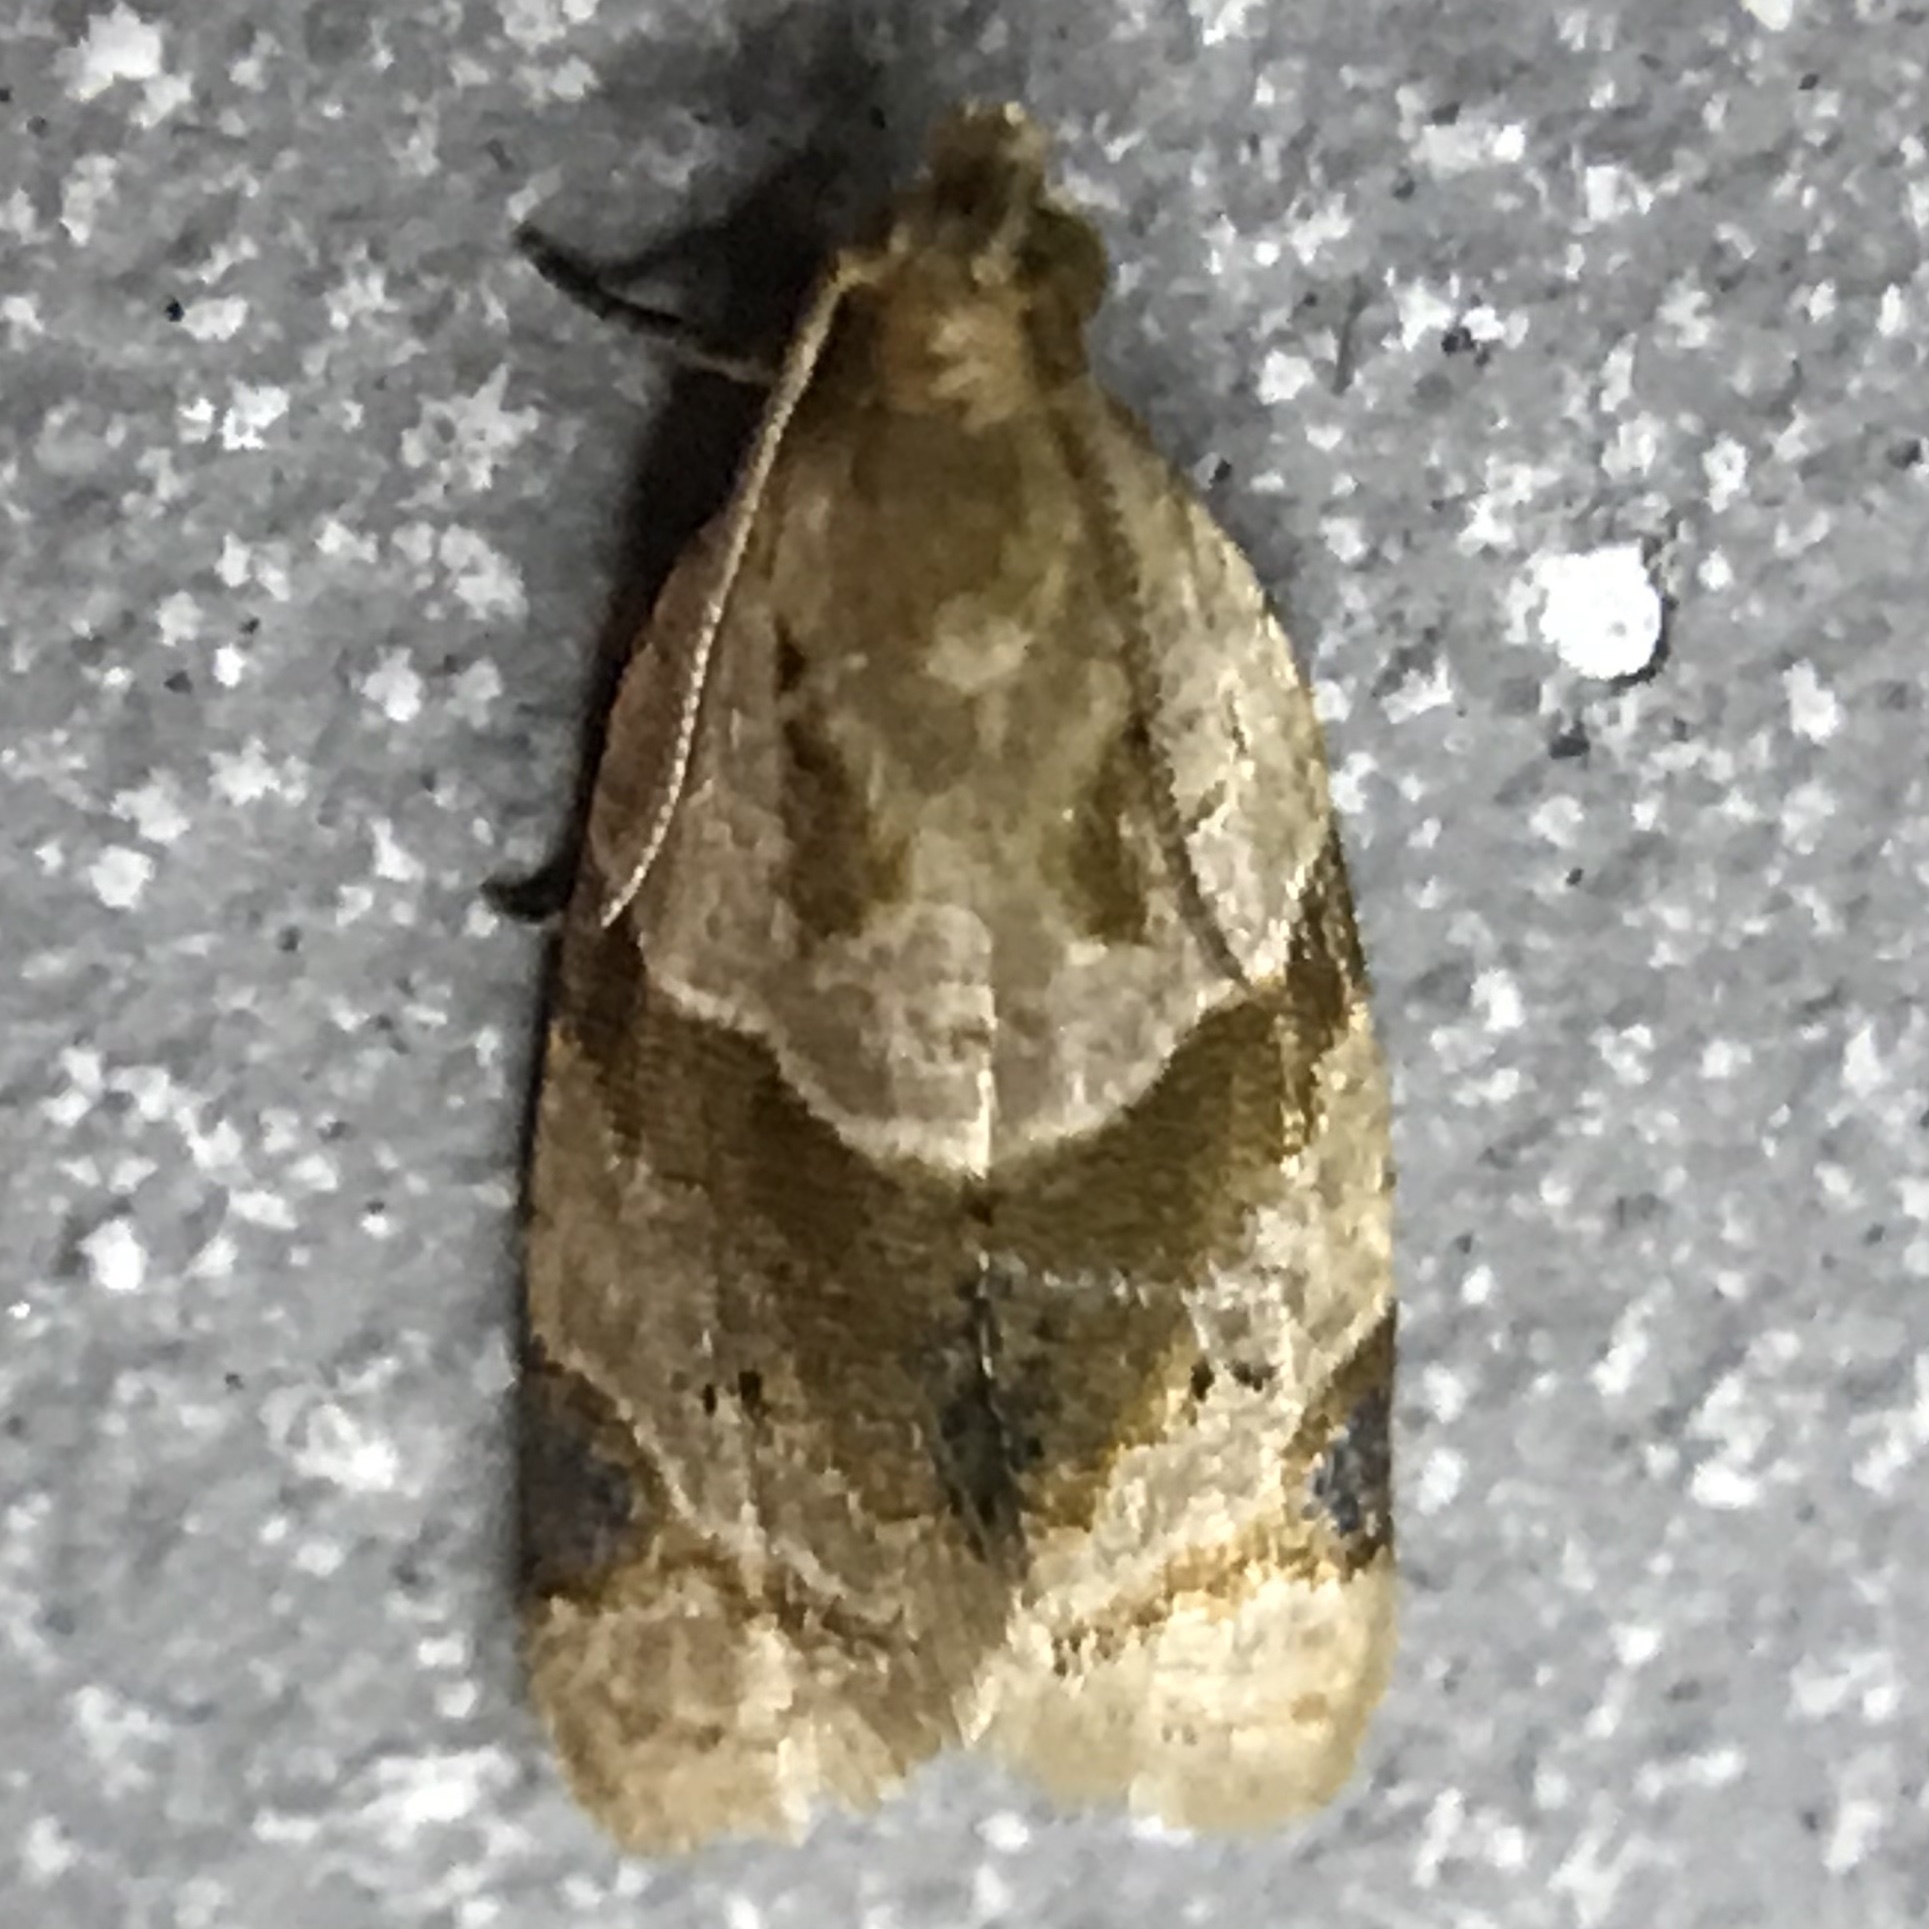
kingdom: Animalia
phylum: Arthropoda
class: Insecta
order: Lepidoptera
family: Tortricidae
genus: Clepsis
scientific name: Clepsis peritana
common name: Garden tortrix
